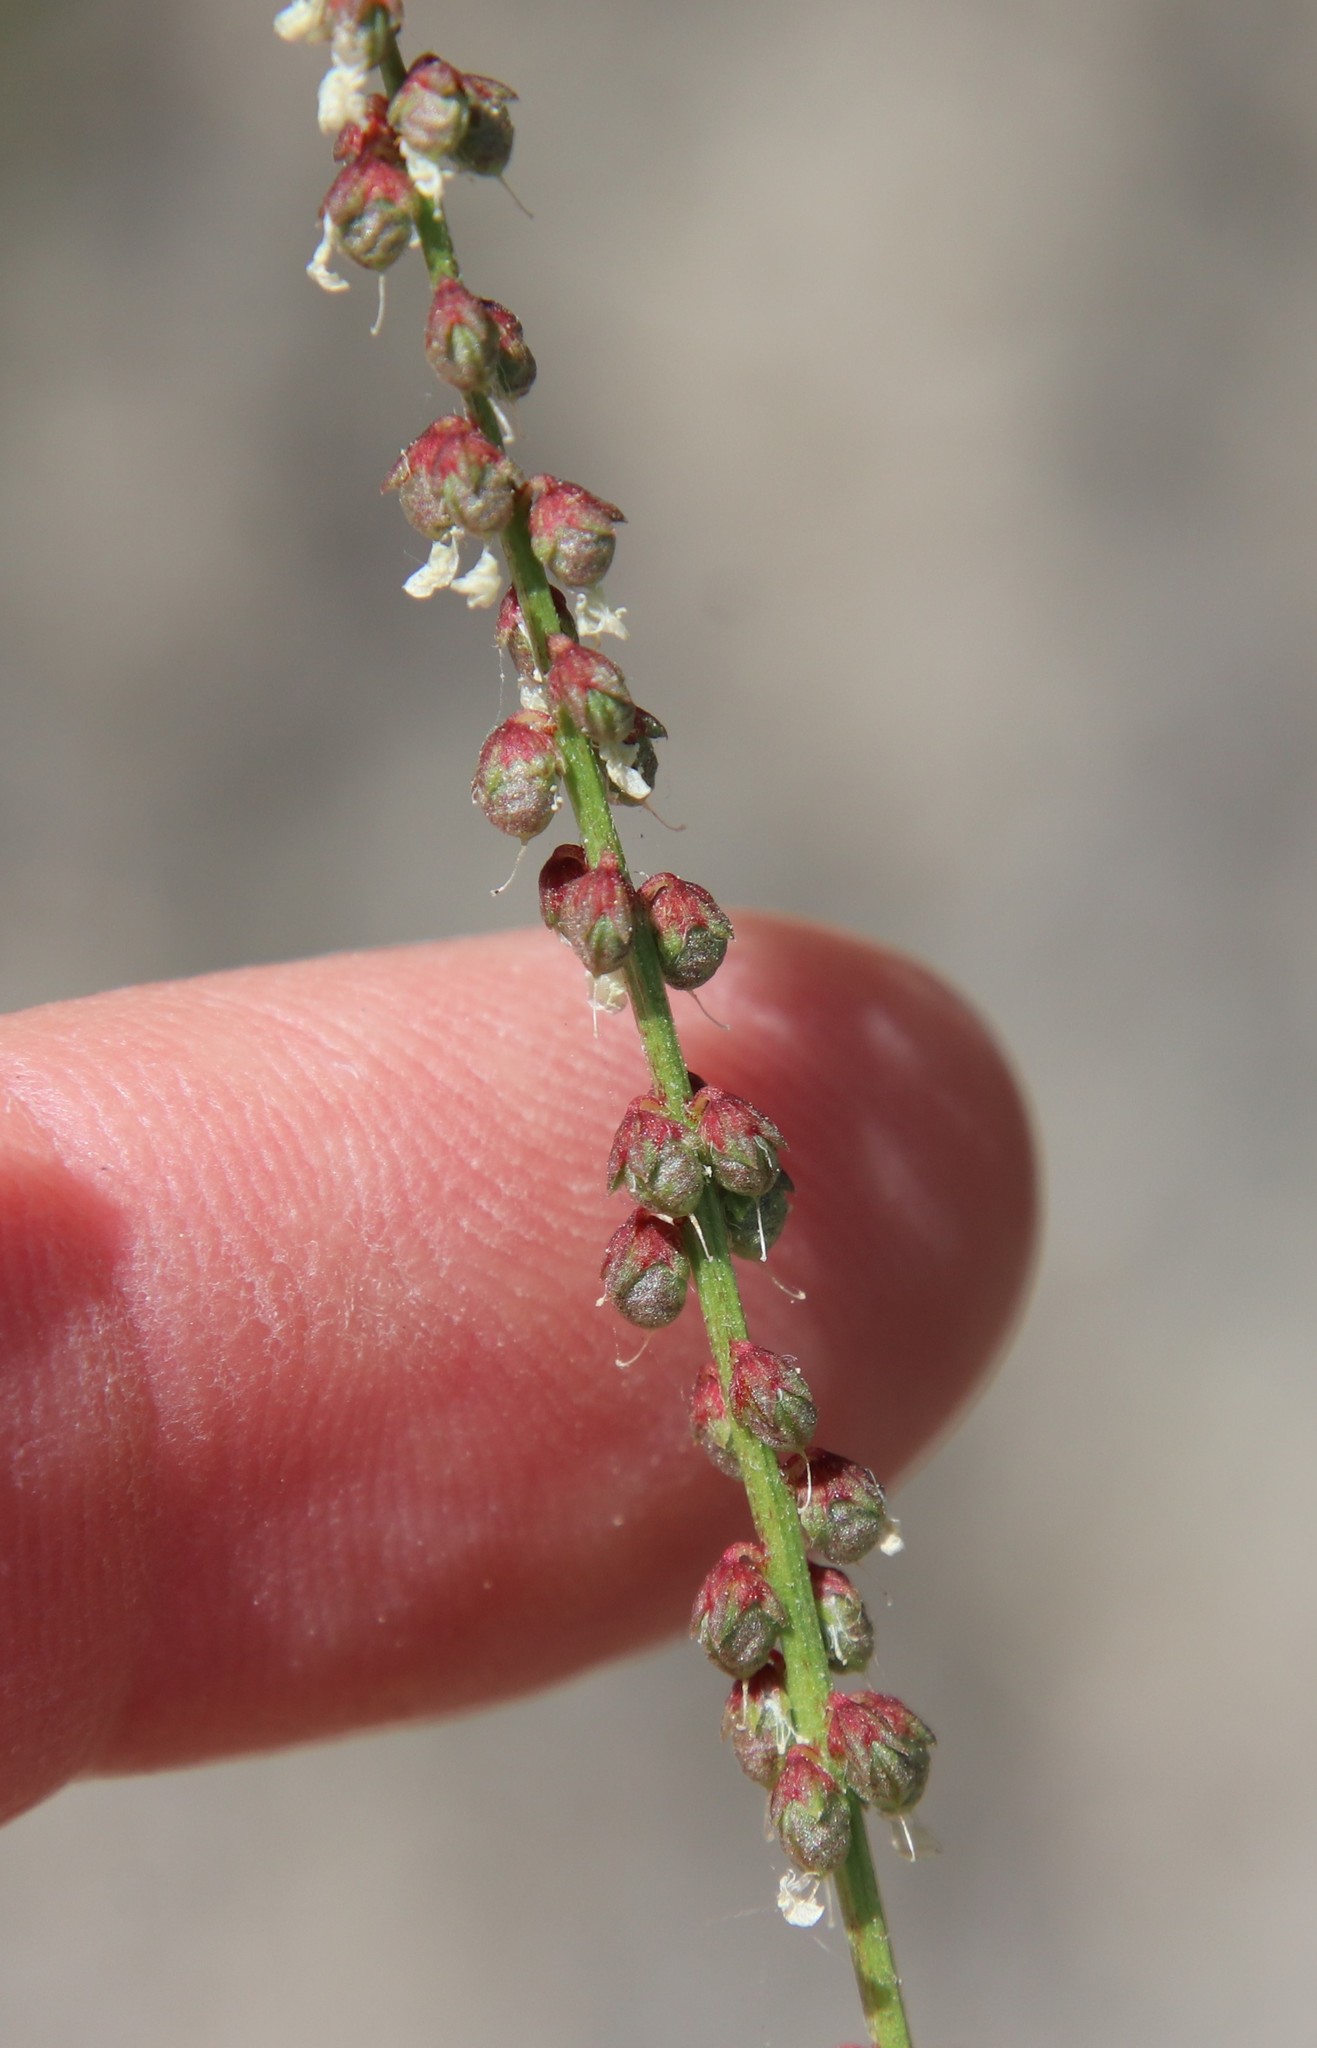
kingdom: Plantae
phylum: Tracheophyta
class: Magnoliopsida
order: Fabales
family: Fabaceae
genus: Melilotus
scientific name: Melilotus indicus
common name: Small melilot
